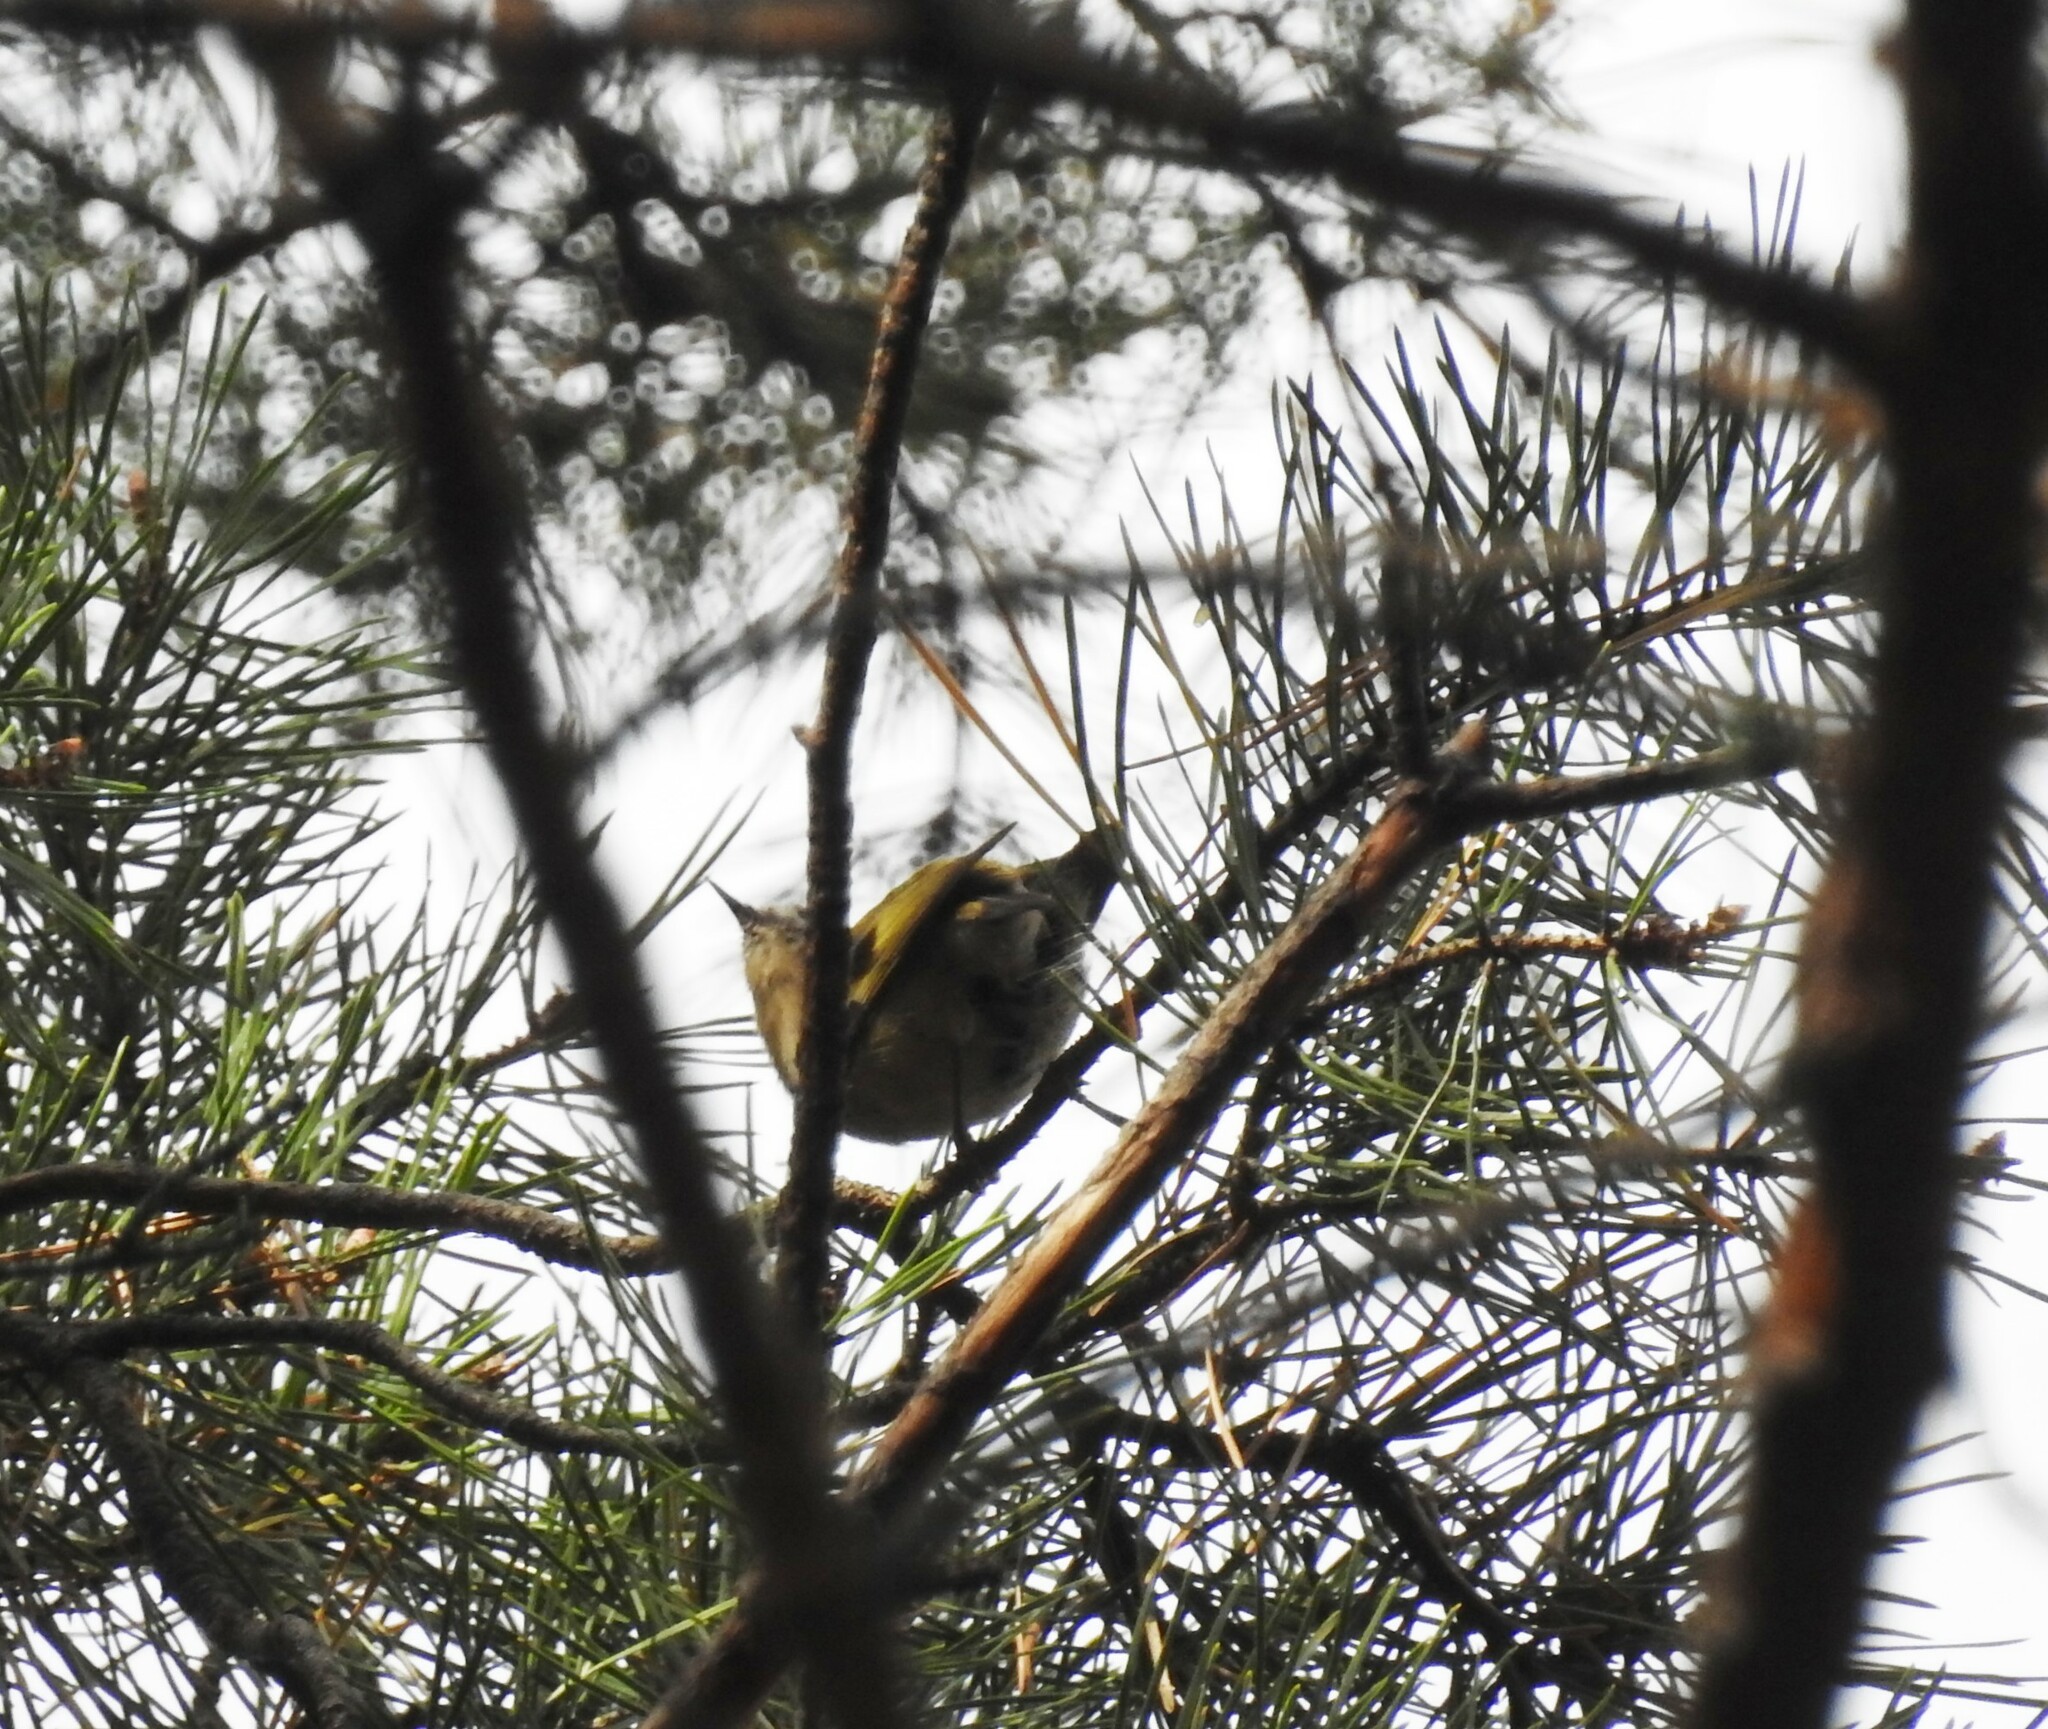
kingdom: Animalia
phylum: Chordata
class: Aves
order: Passeriformes
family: Regulidae
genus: Regulus
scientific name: Regulus regulus
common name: Goldcrest
